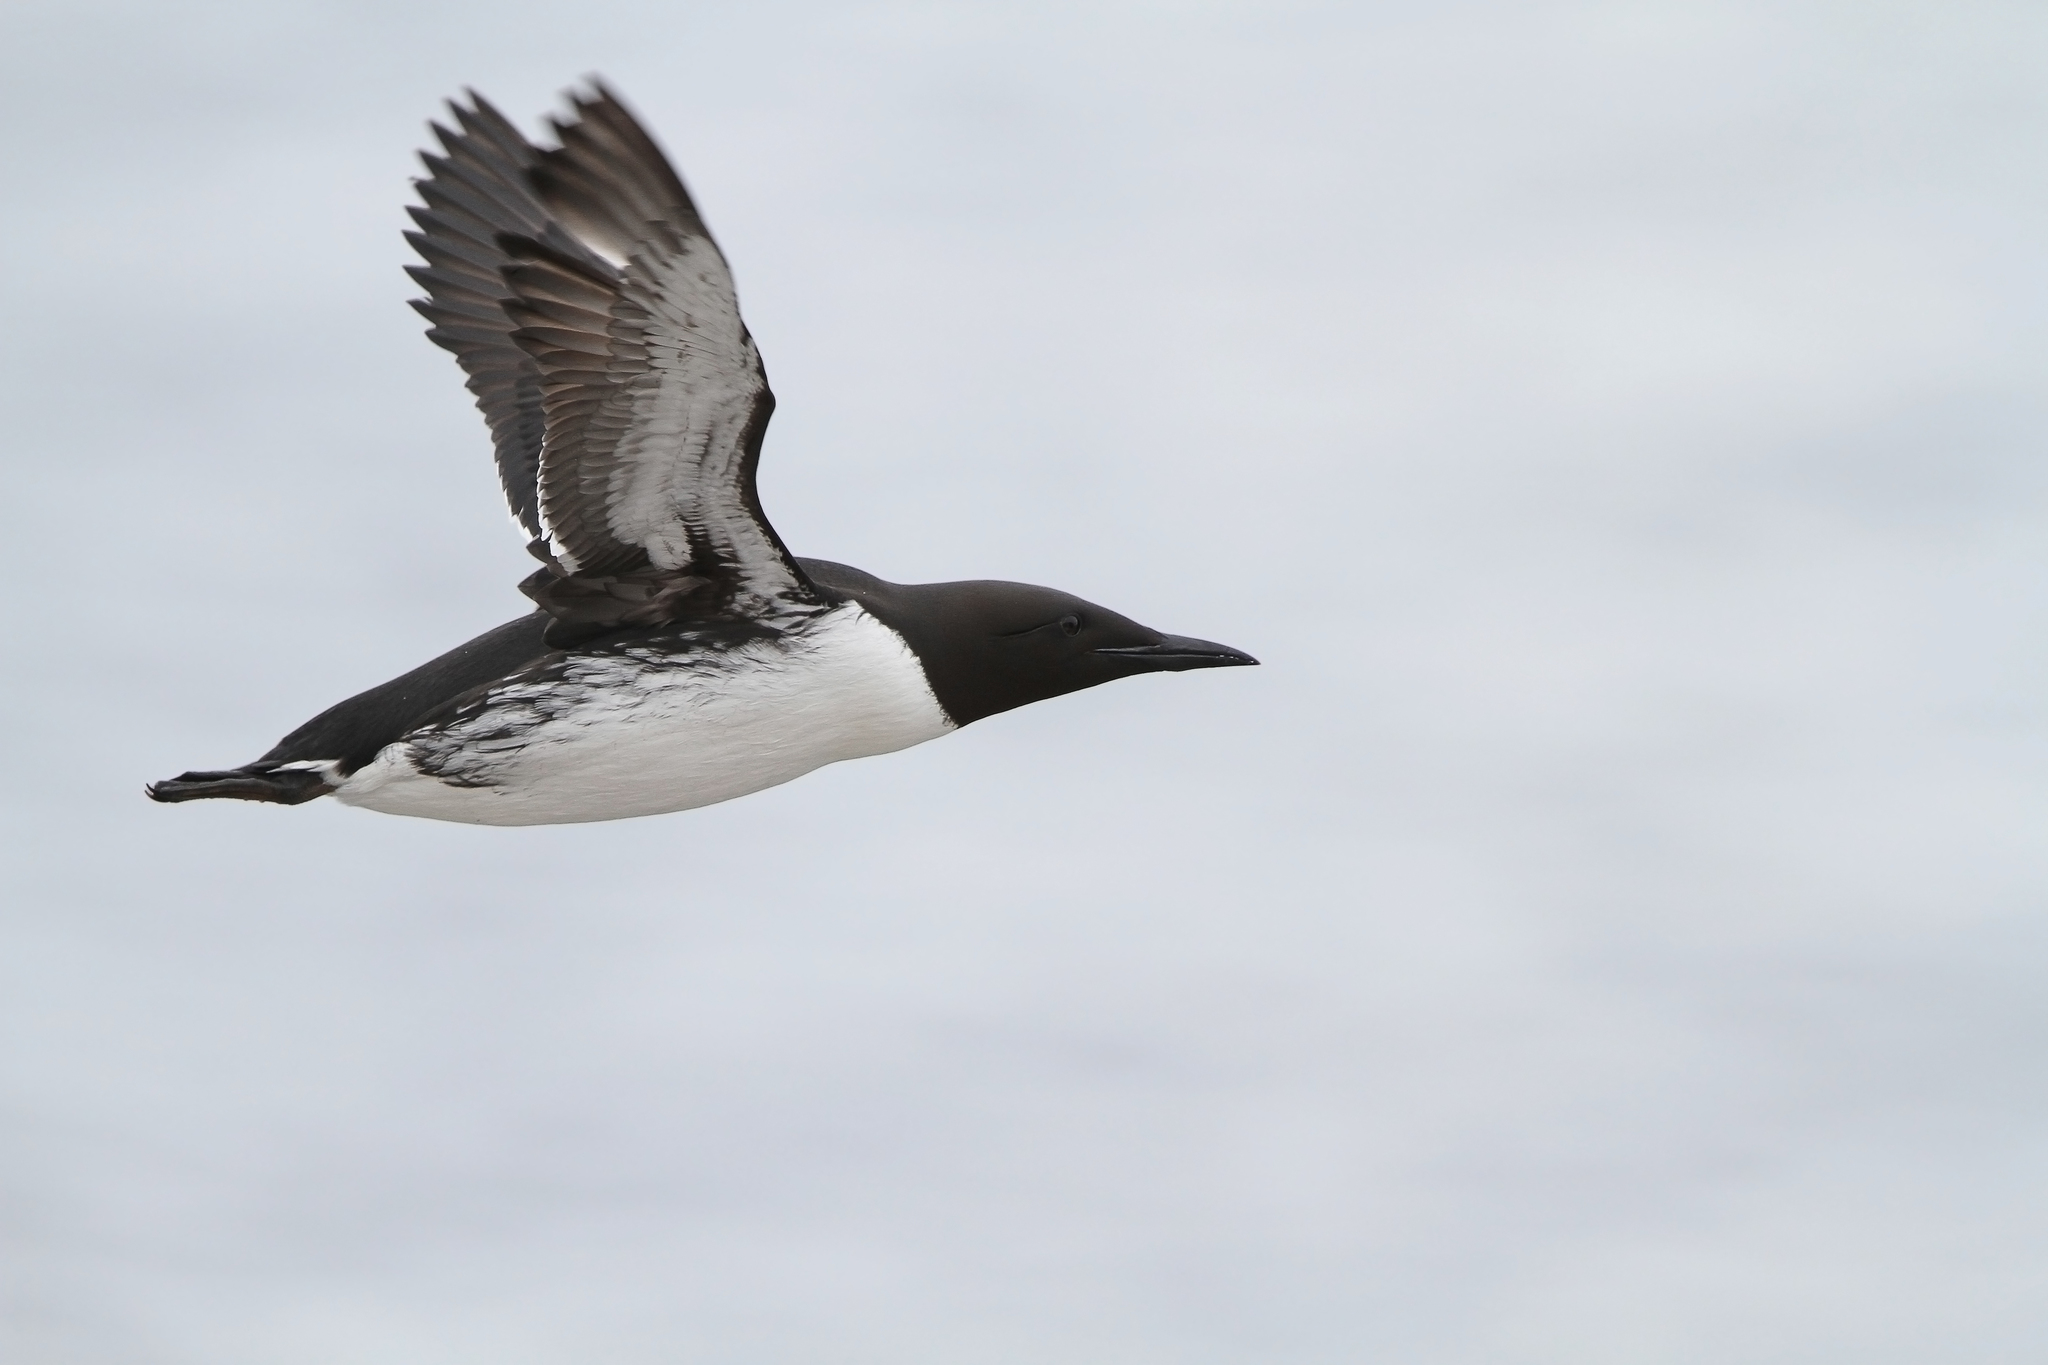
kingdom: Animalia
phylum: Chordata
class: Aves
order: Charadriiformes
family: Alcidae
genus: Uria
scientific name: Uria aalge
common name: Common murre
